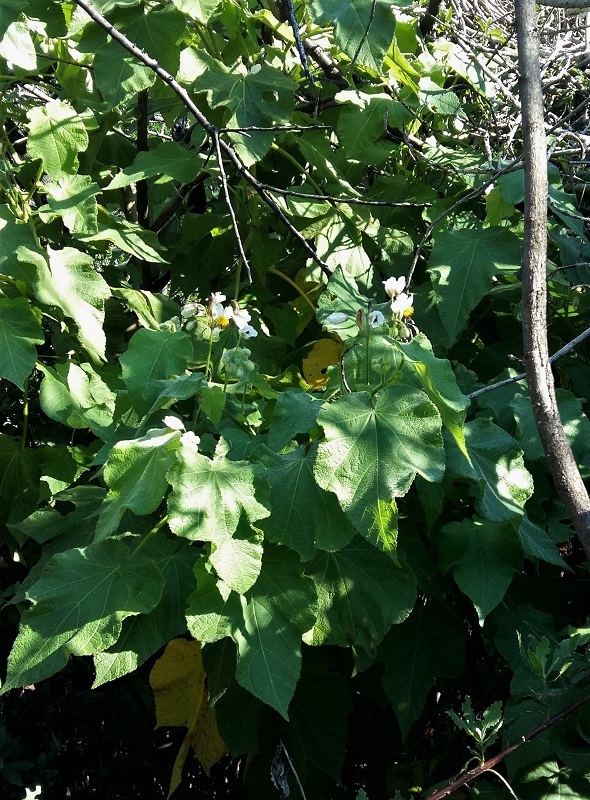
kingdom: Plantae
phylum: Tracheophyta
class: Magnoliopsida
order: Malvales
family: Malvaceae
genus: Sparrmannia
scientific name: Sparrmannia africana
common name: African-hemp
